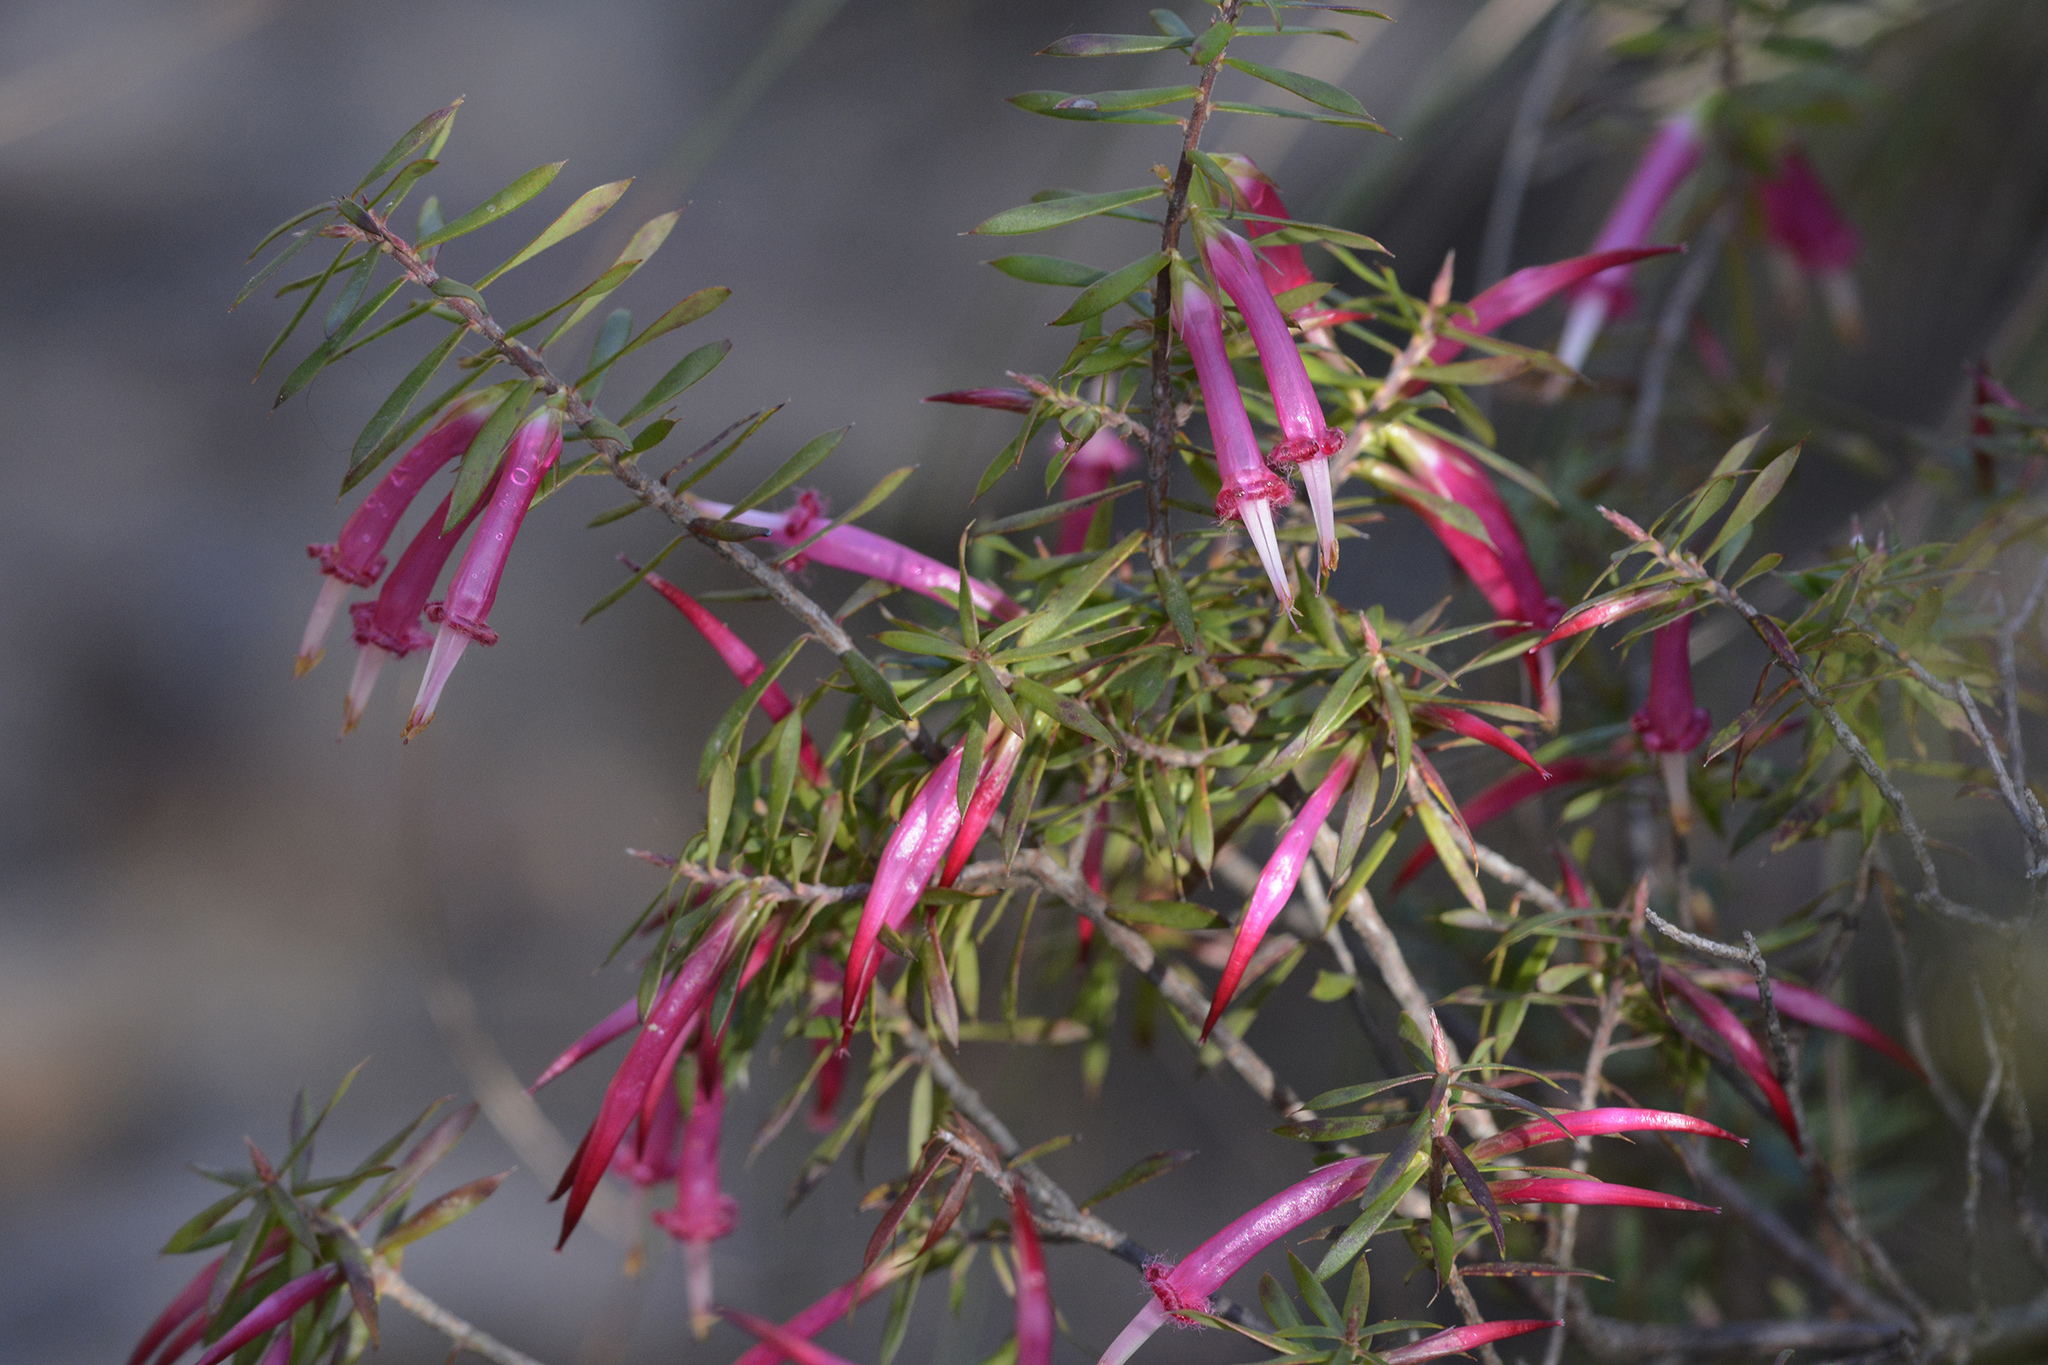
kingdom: Plantae
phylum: Tracheophyta
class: Magnoliopsida
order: Ericales
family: Ericaceae
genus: Styphelia
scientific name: Styphelia tubiflora
